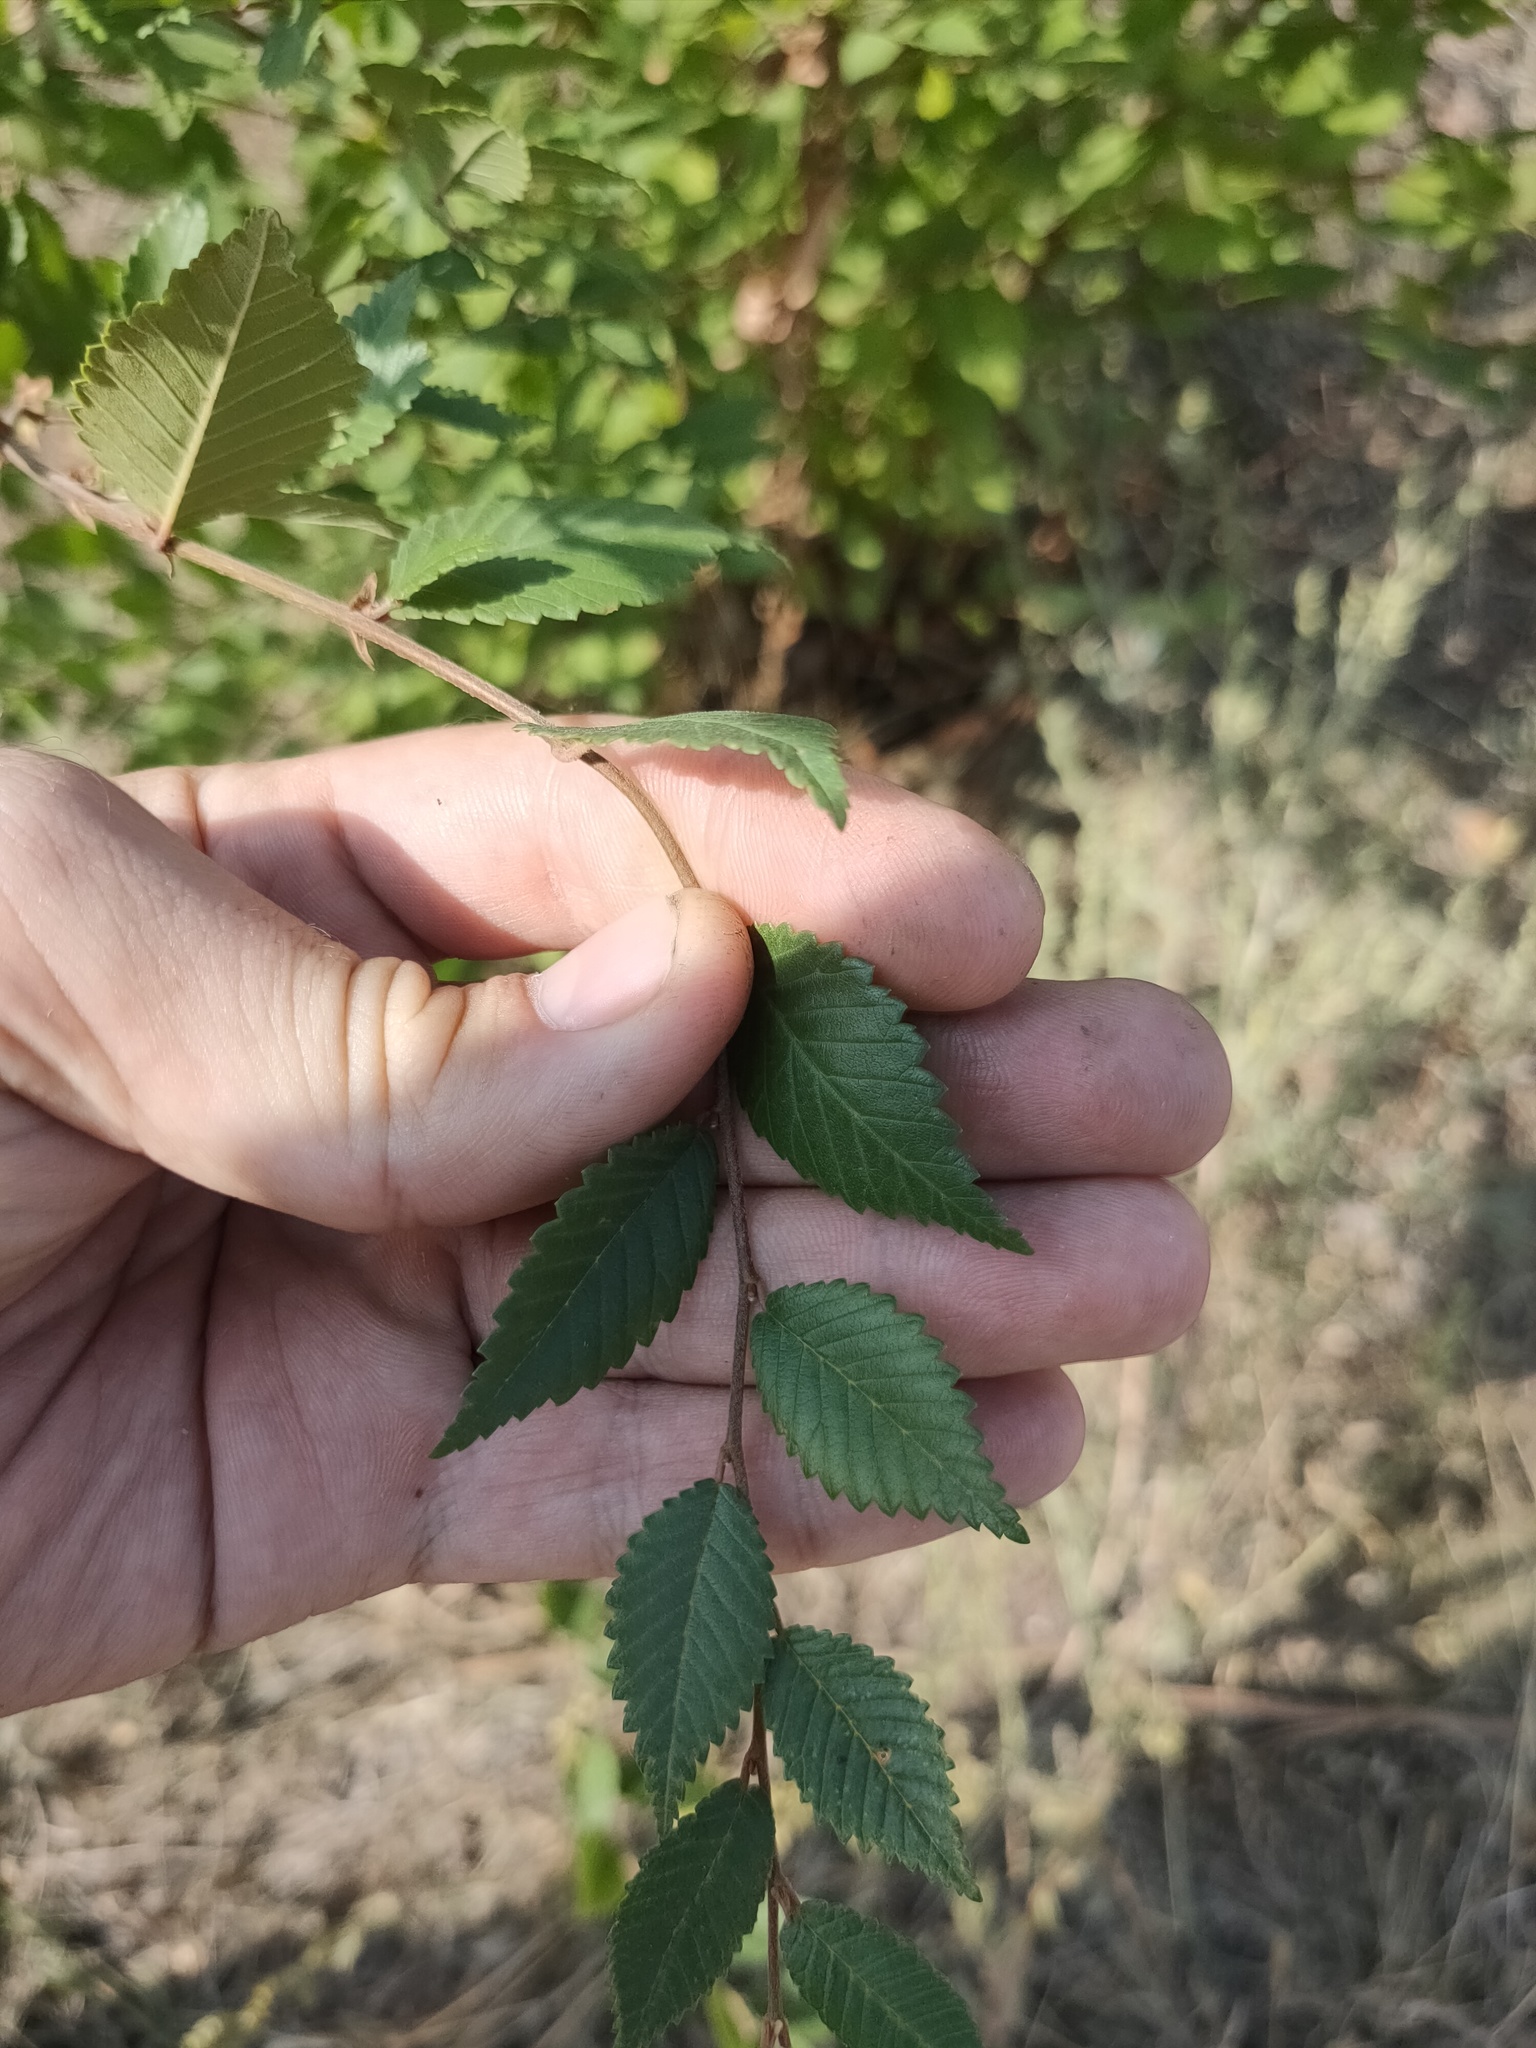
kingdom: Plantae
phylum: Tracheophyta
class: Magnoliopsida
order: Rosales
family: Ulmaceae
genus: Ulmus
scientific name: Ulmus pumila
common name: Siberian elm
